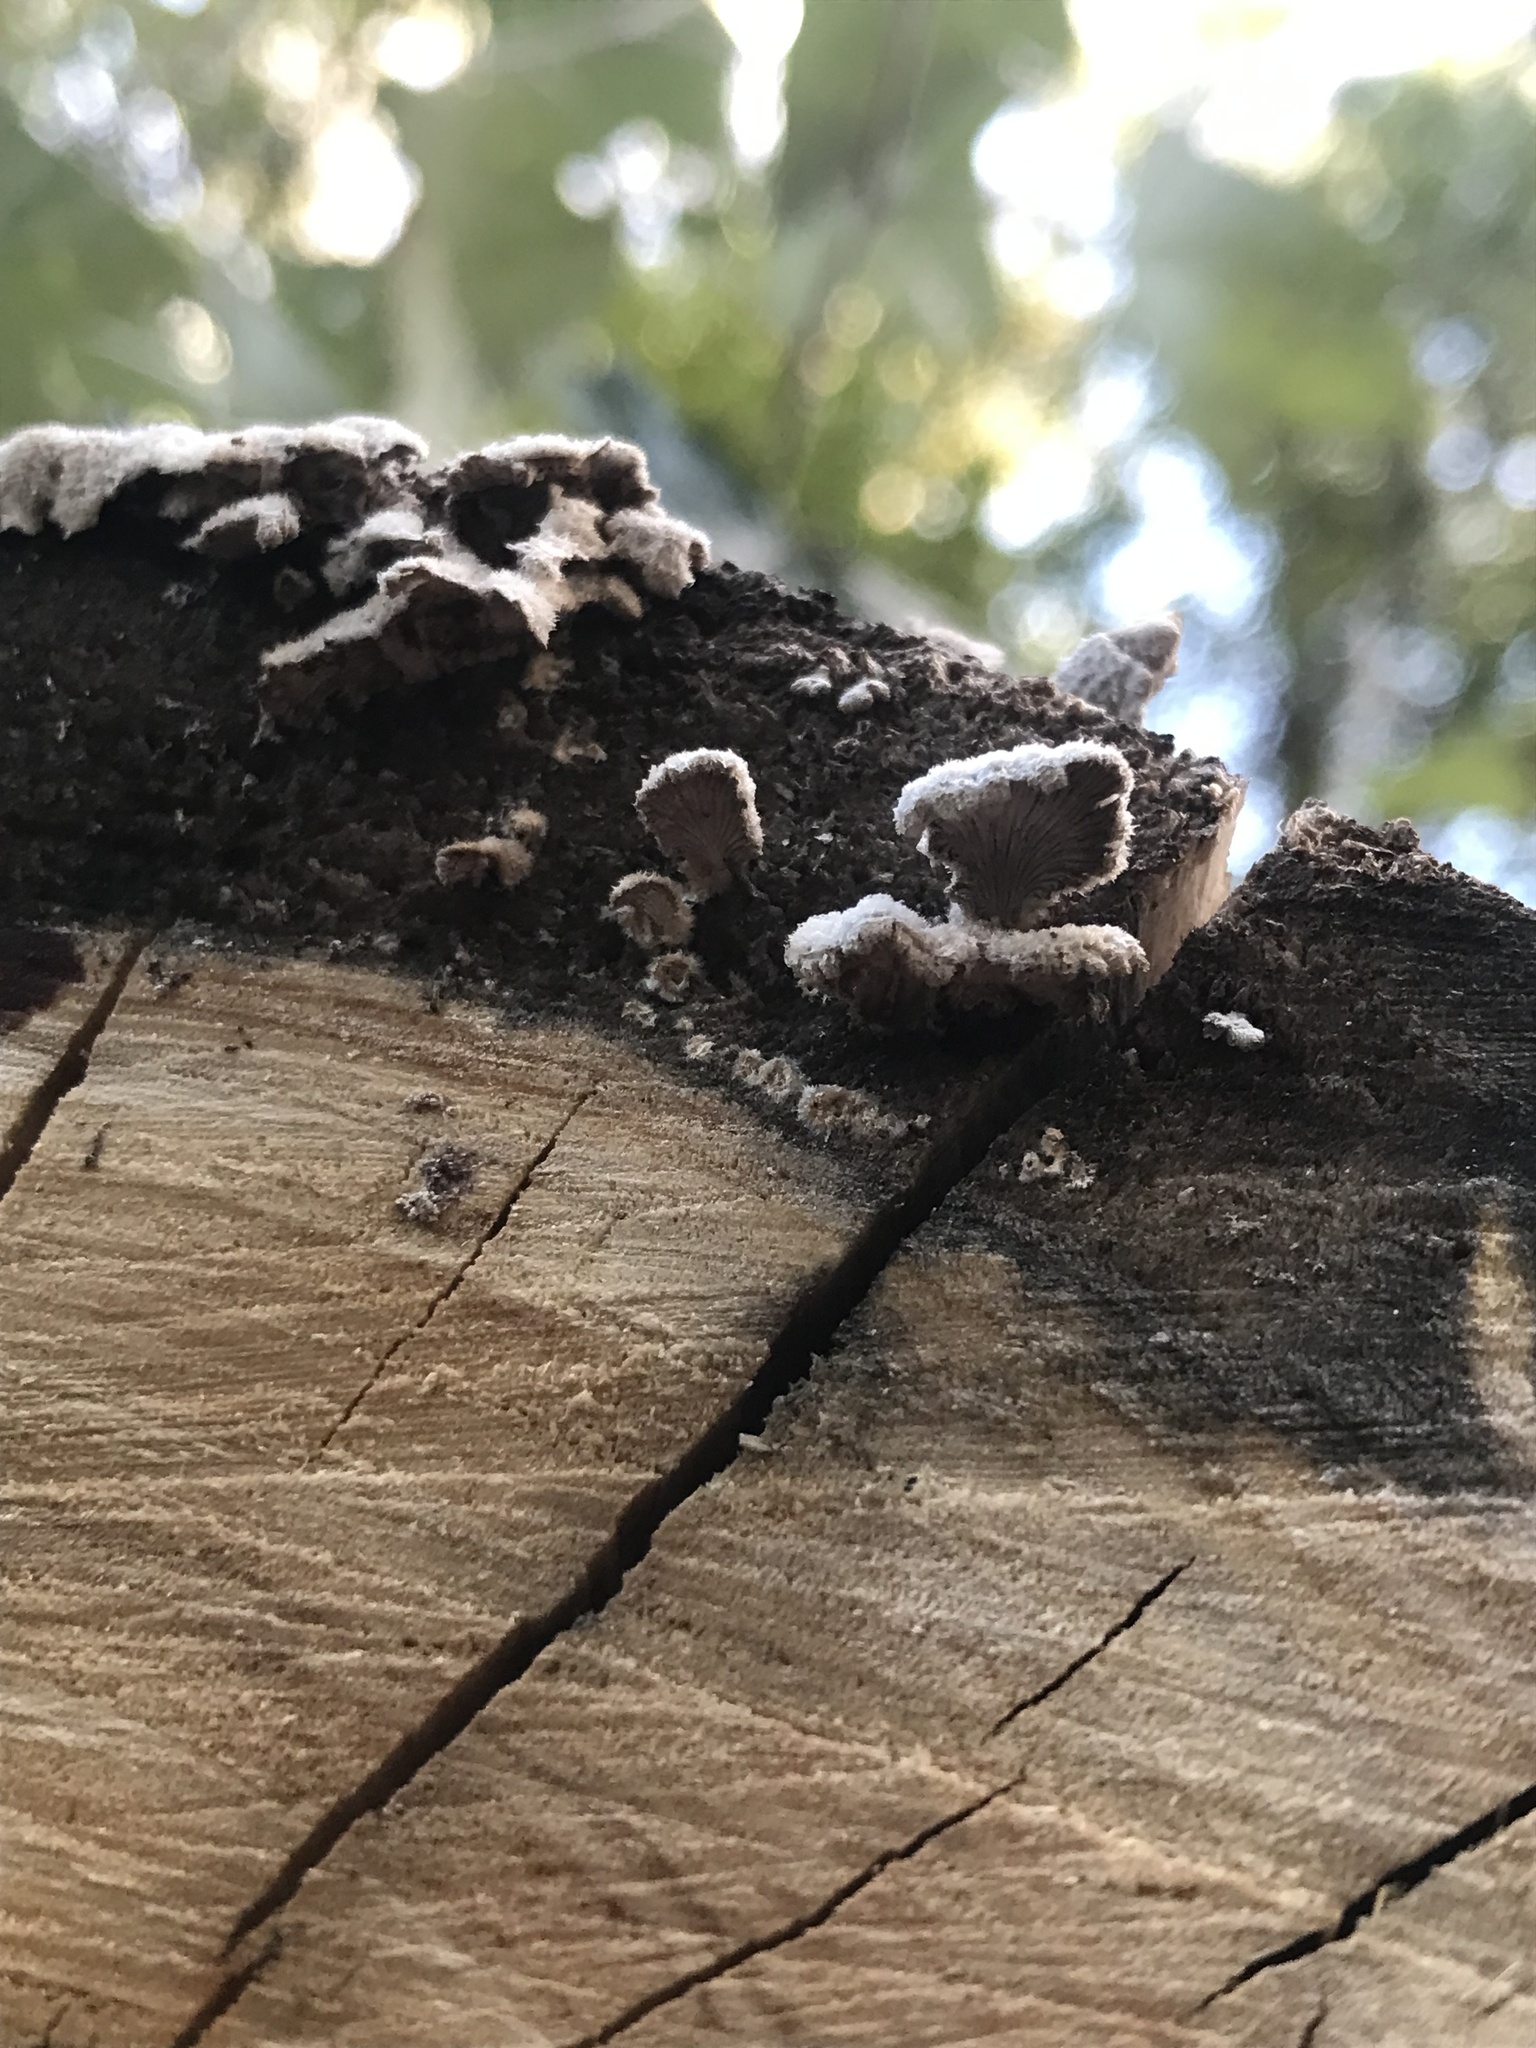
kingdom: Fungi
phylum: Basidiomycota
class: Agaricomycetes
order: Agaricales
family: Schizophyllaceae
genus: Schizophyllum
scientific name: Schizophyllum commune
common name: Common porecrust
